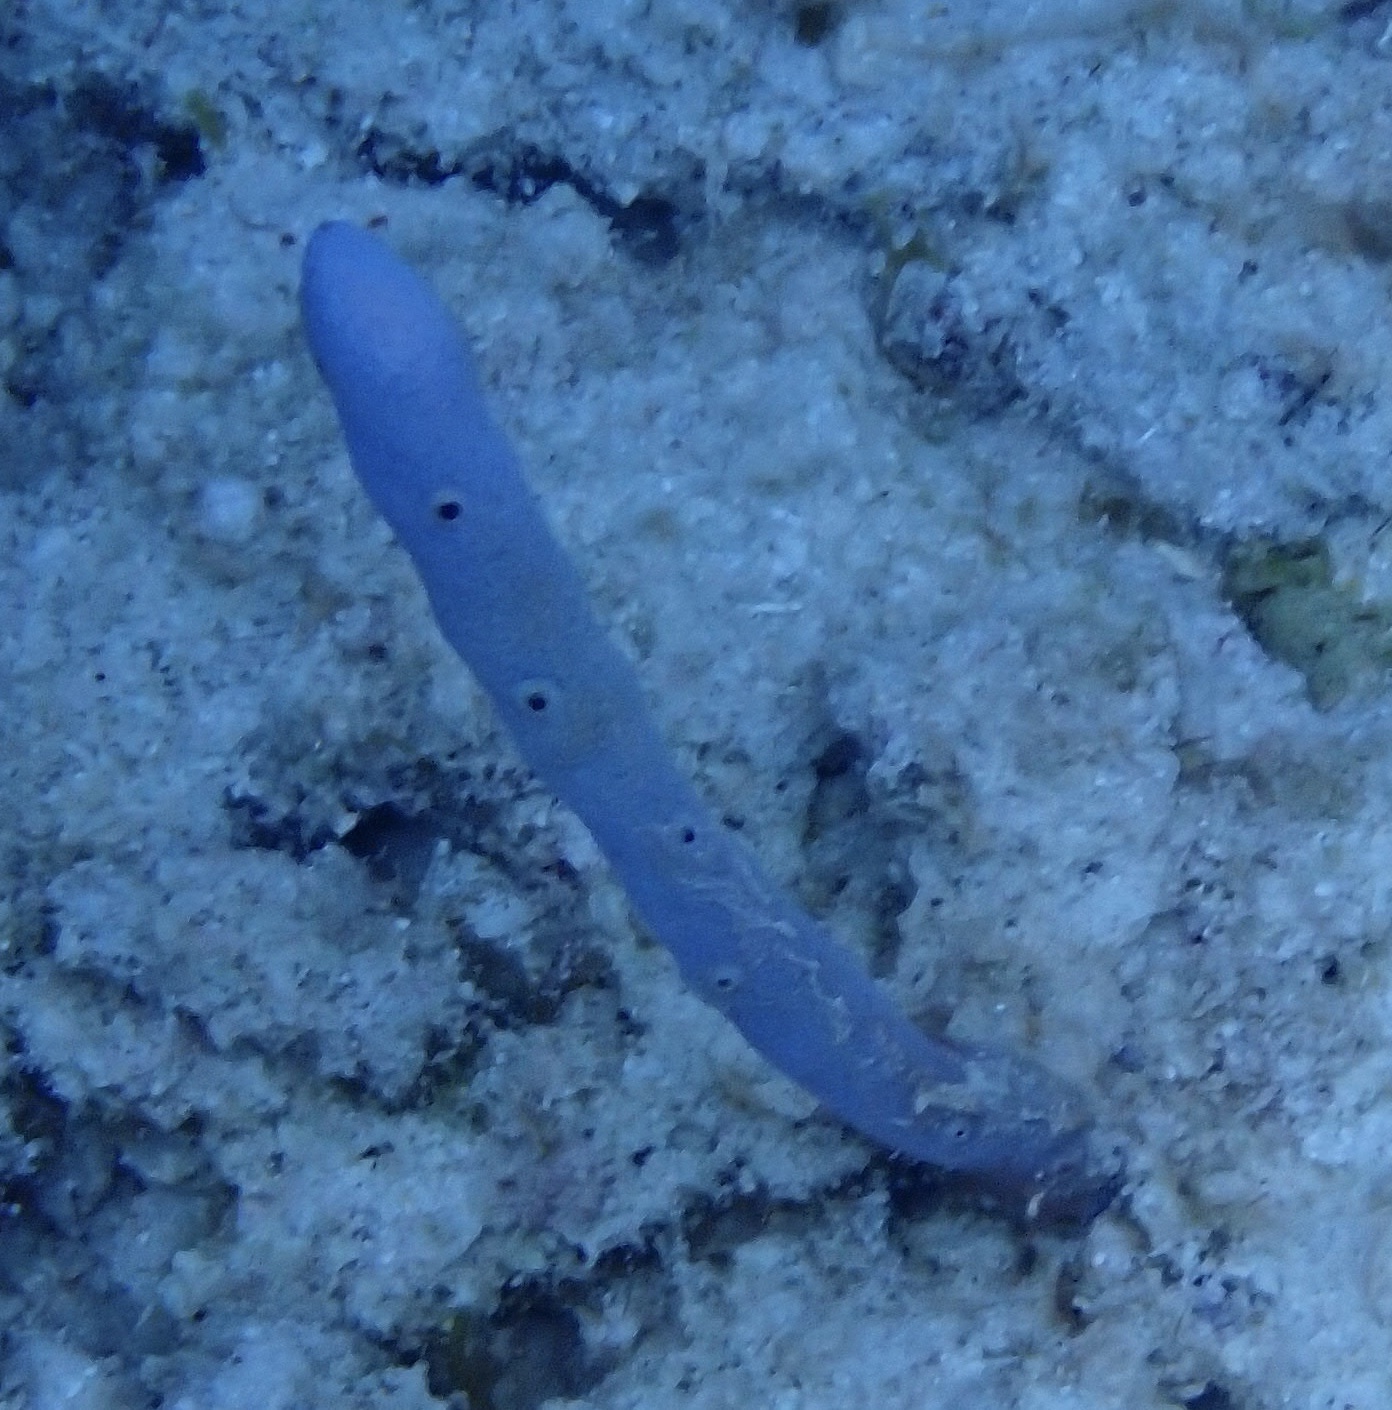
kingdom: Animalia
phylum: Porifera
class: Demospongiae
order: Verongiida
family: Aplysinidae
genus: Aplysina
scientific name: Aplysina cauliformis
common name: Branching candle sponge
